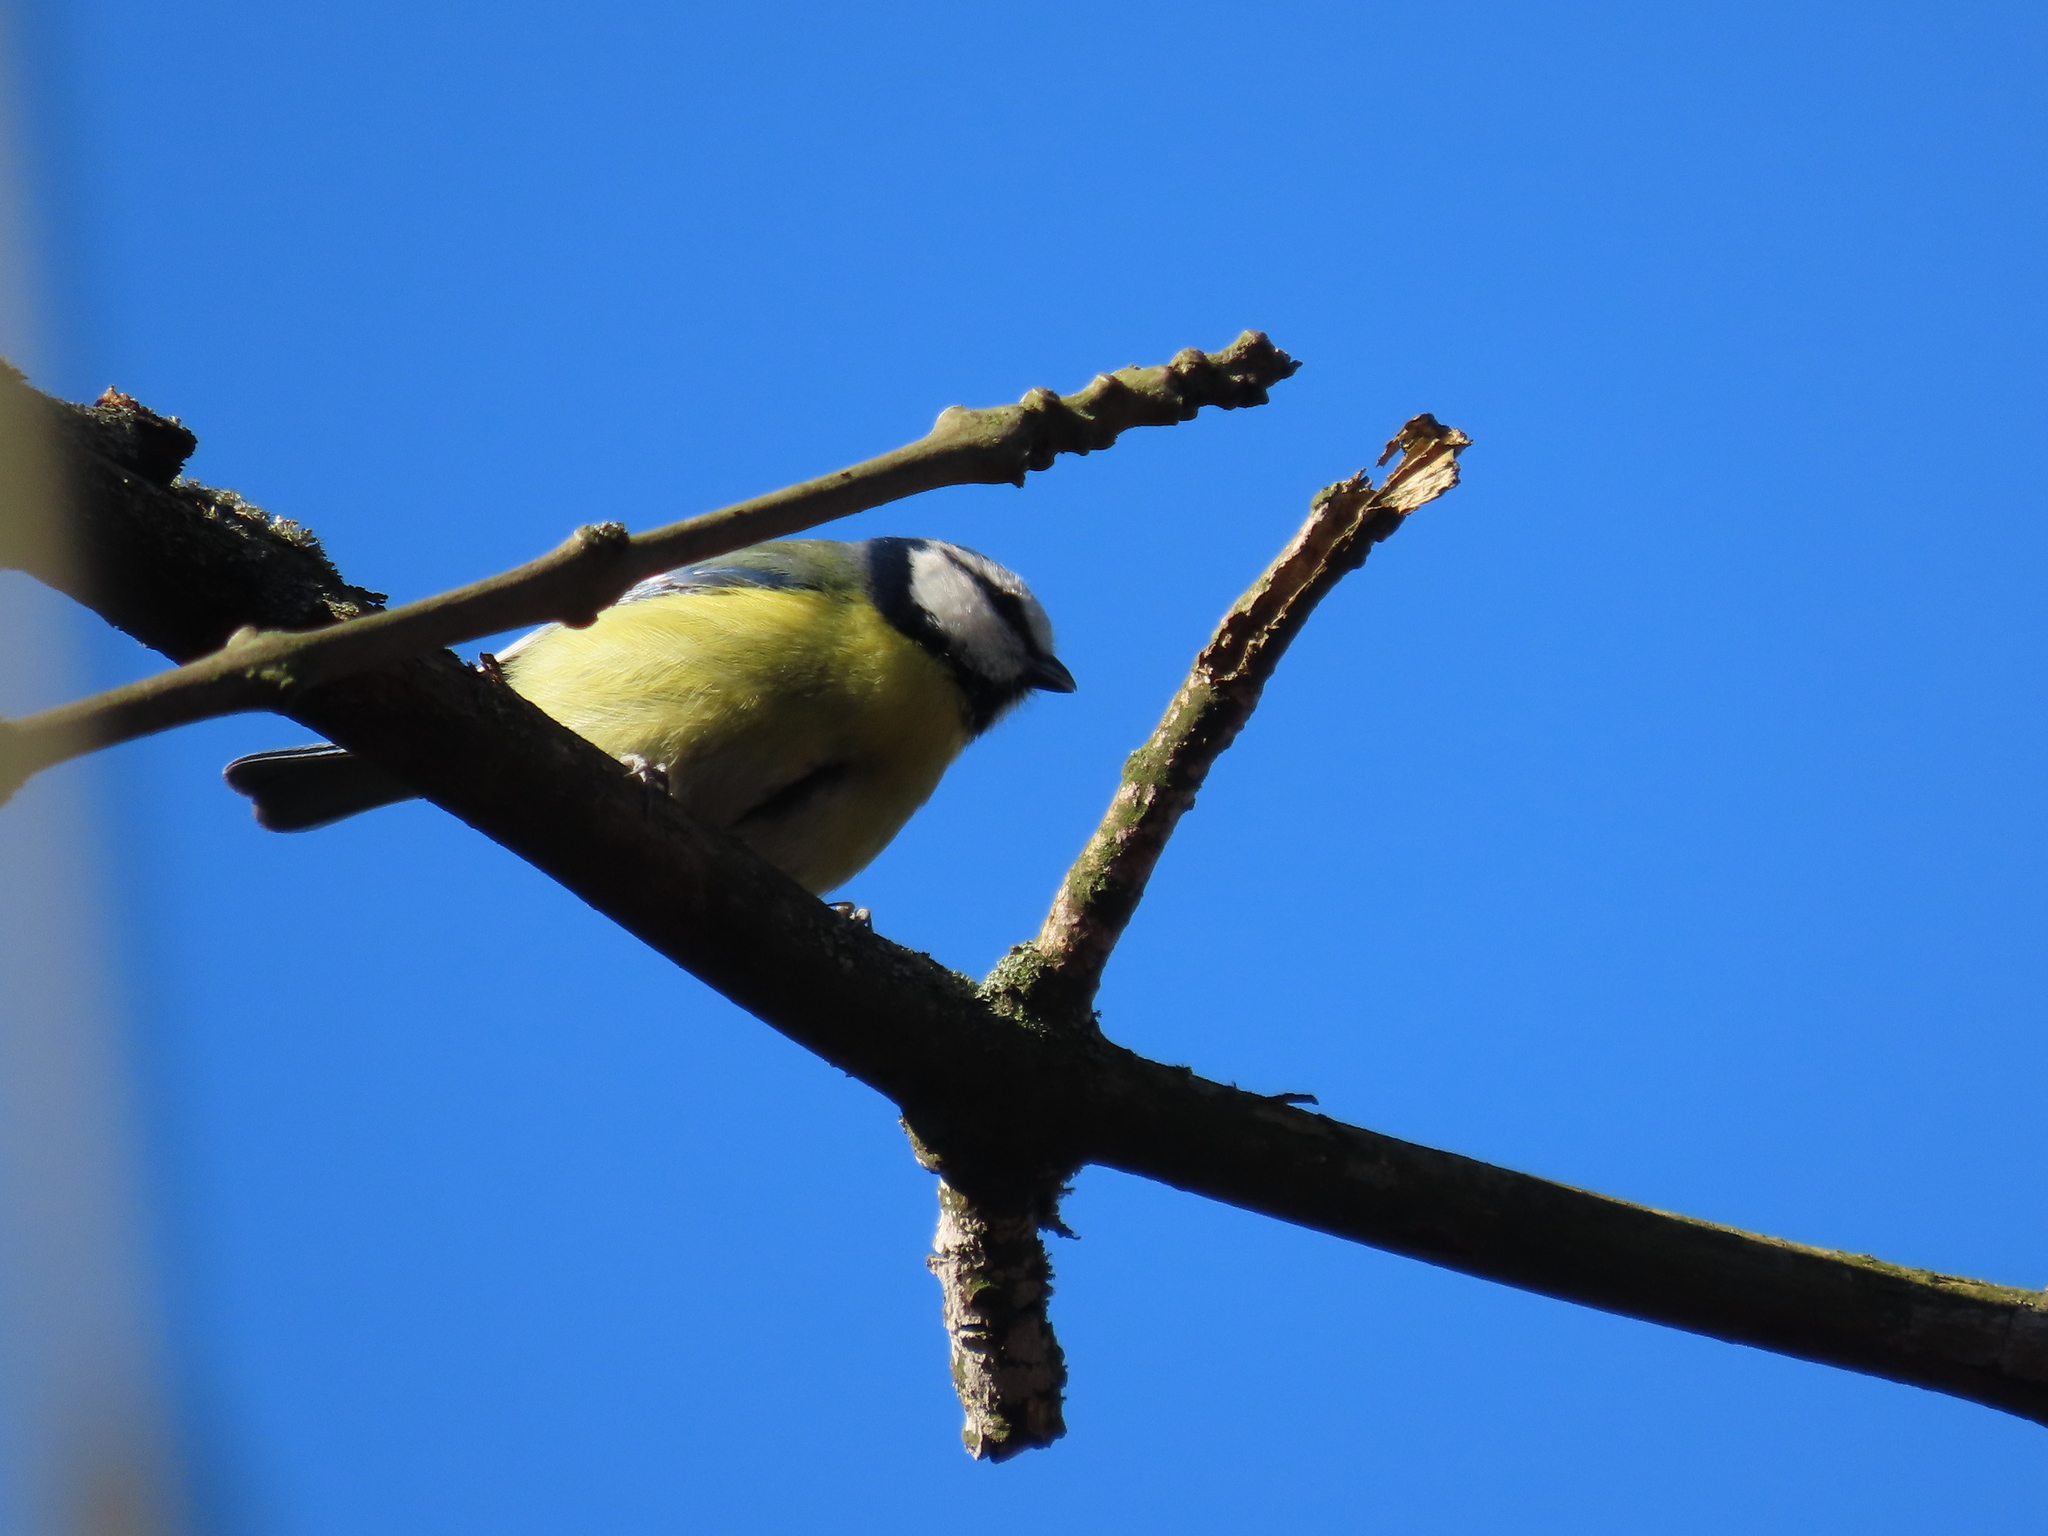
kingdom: Animalia
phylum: Chordata
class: Aves
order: Passeriformes
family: Paridae
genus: Cyanistes
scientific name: Cyanistes caeruleus
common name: Eurasian blue tit
